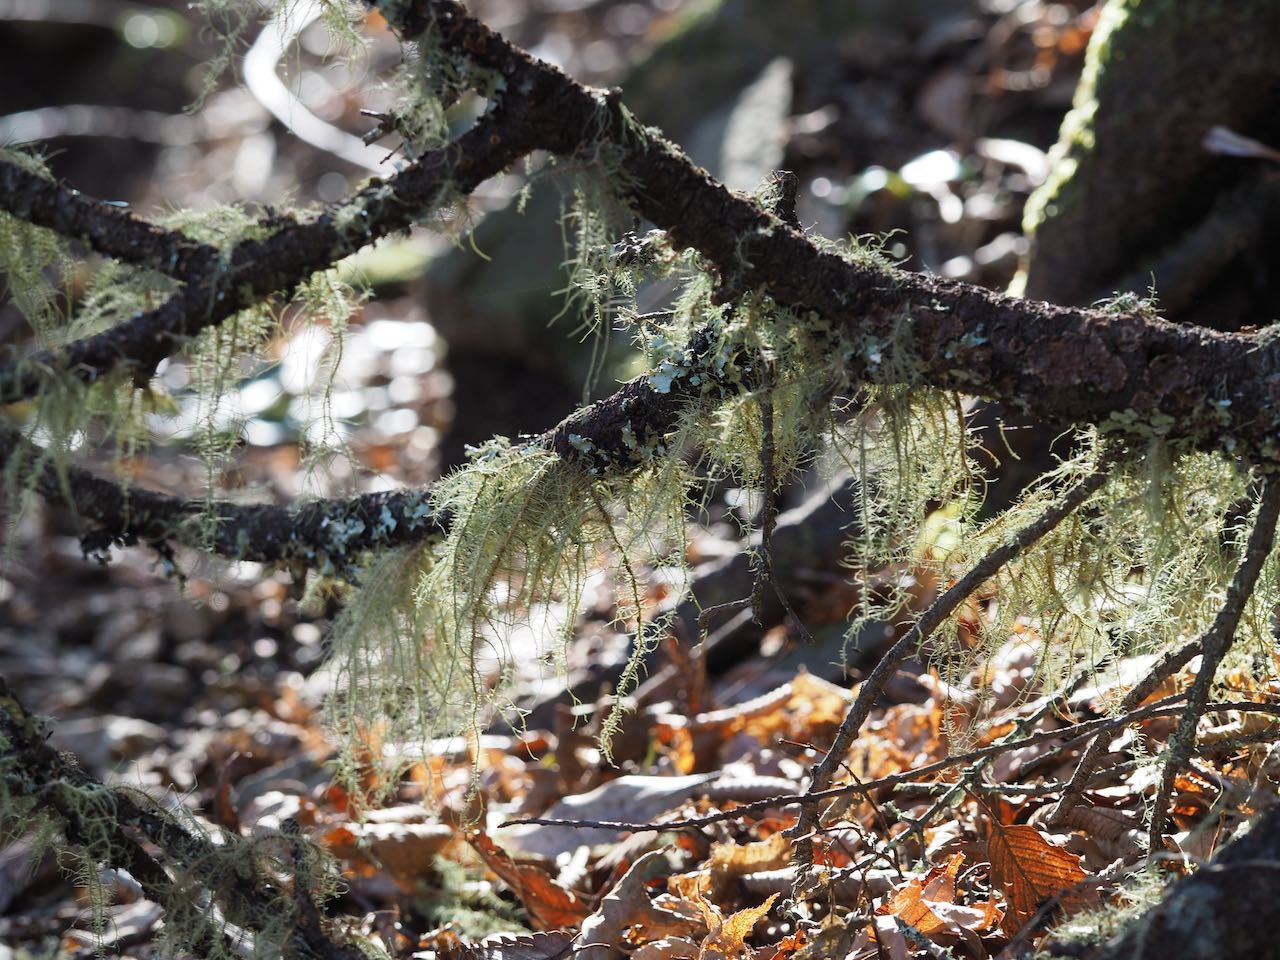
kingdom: Fungi
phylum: Ascomycota
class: Lecanoromycetes
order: Lecanorales
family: Parmeliaceae
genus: Usnea
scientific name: Usnea
